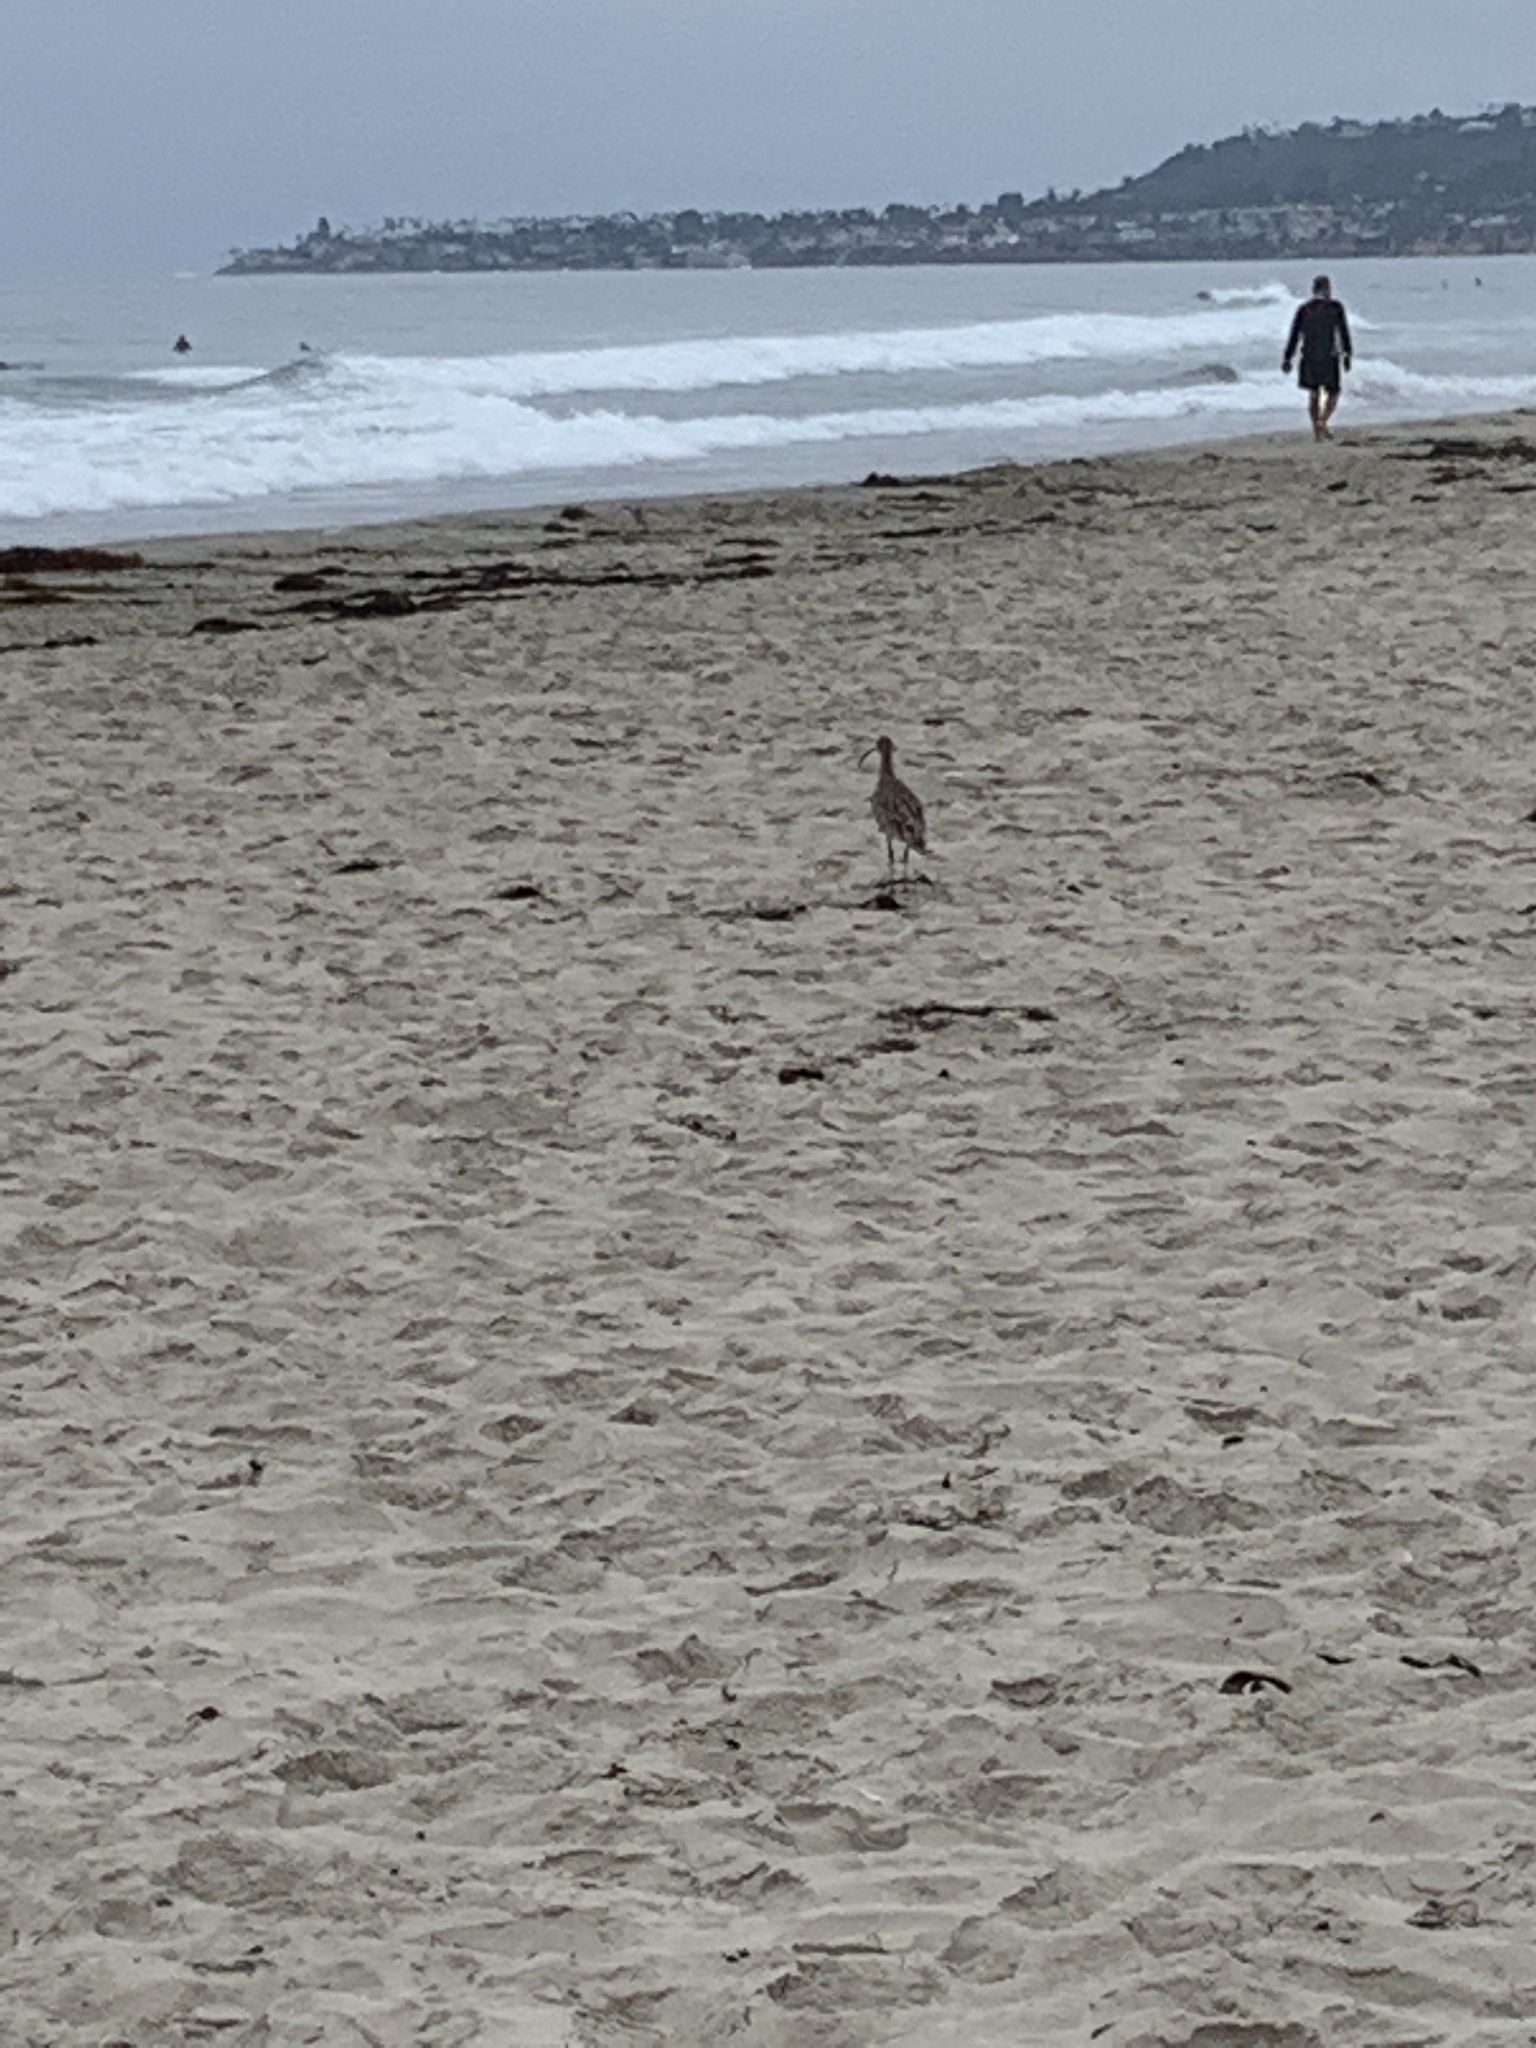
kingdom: Animalia
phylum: Chordata
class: Aves
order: Charadriiformes
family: Scolopacidae
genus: Numenius
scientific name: Numenius americanus
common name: Long-billed curlew
